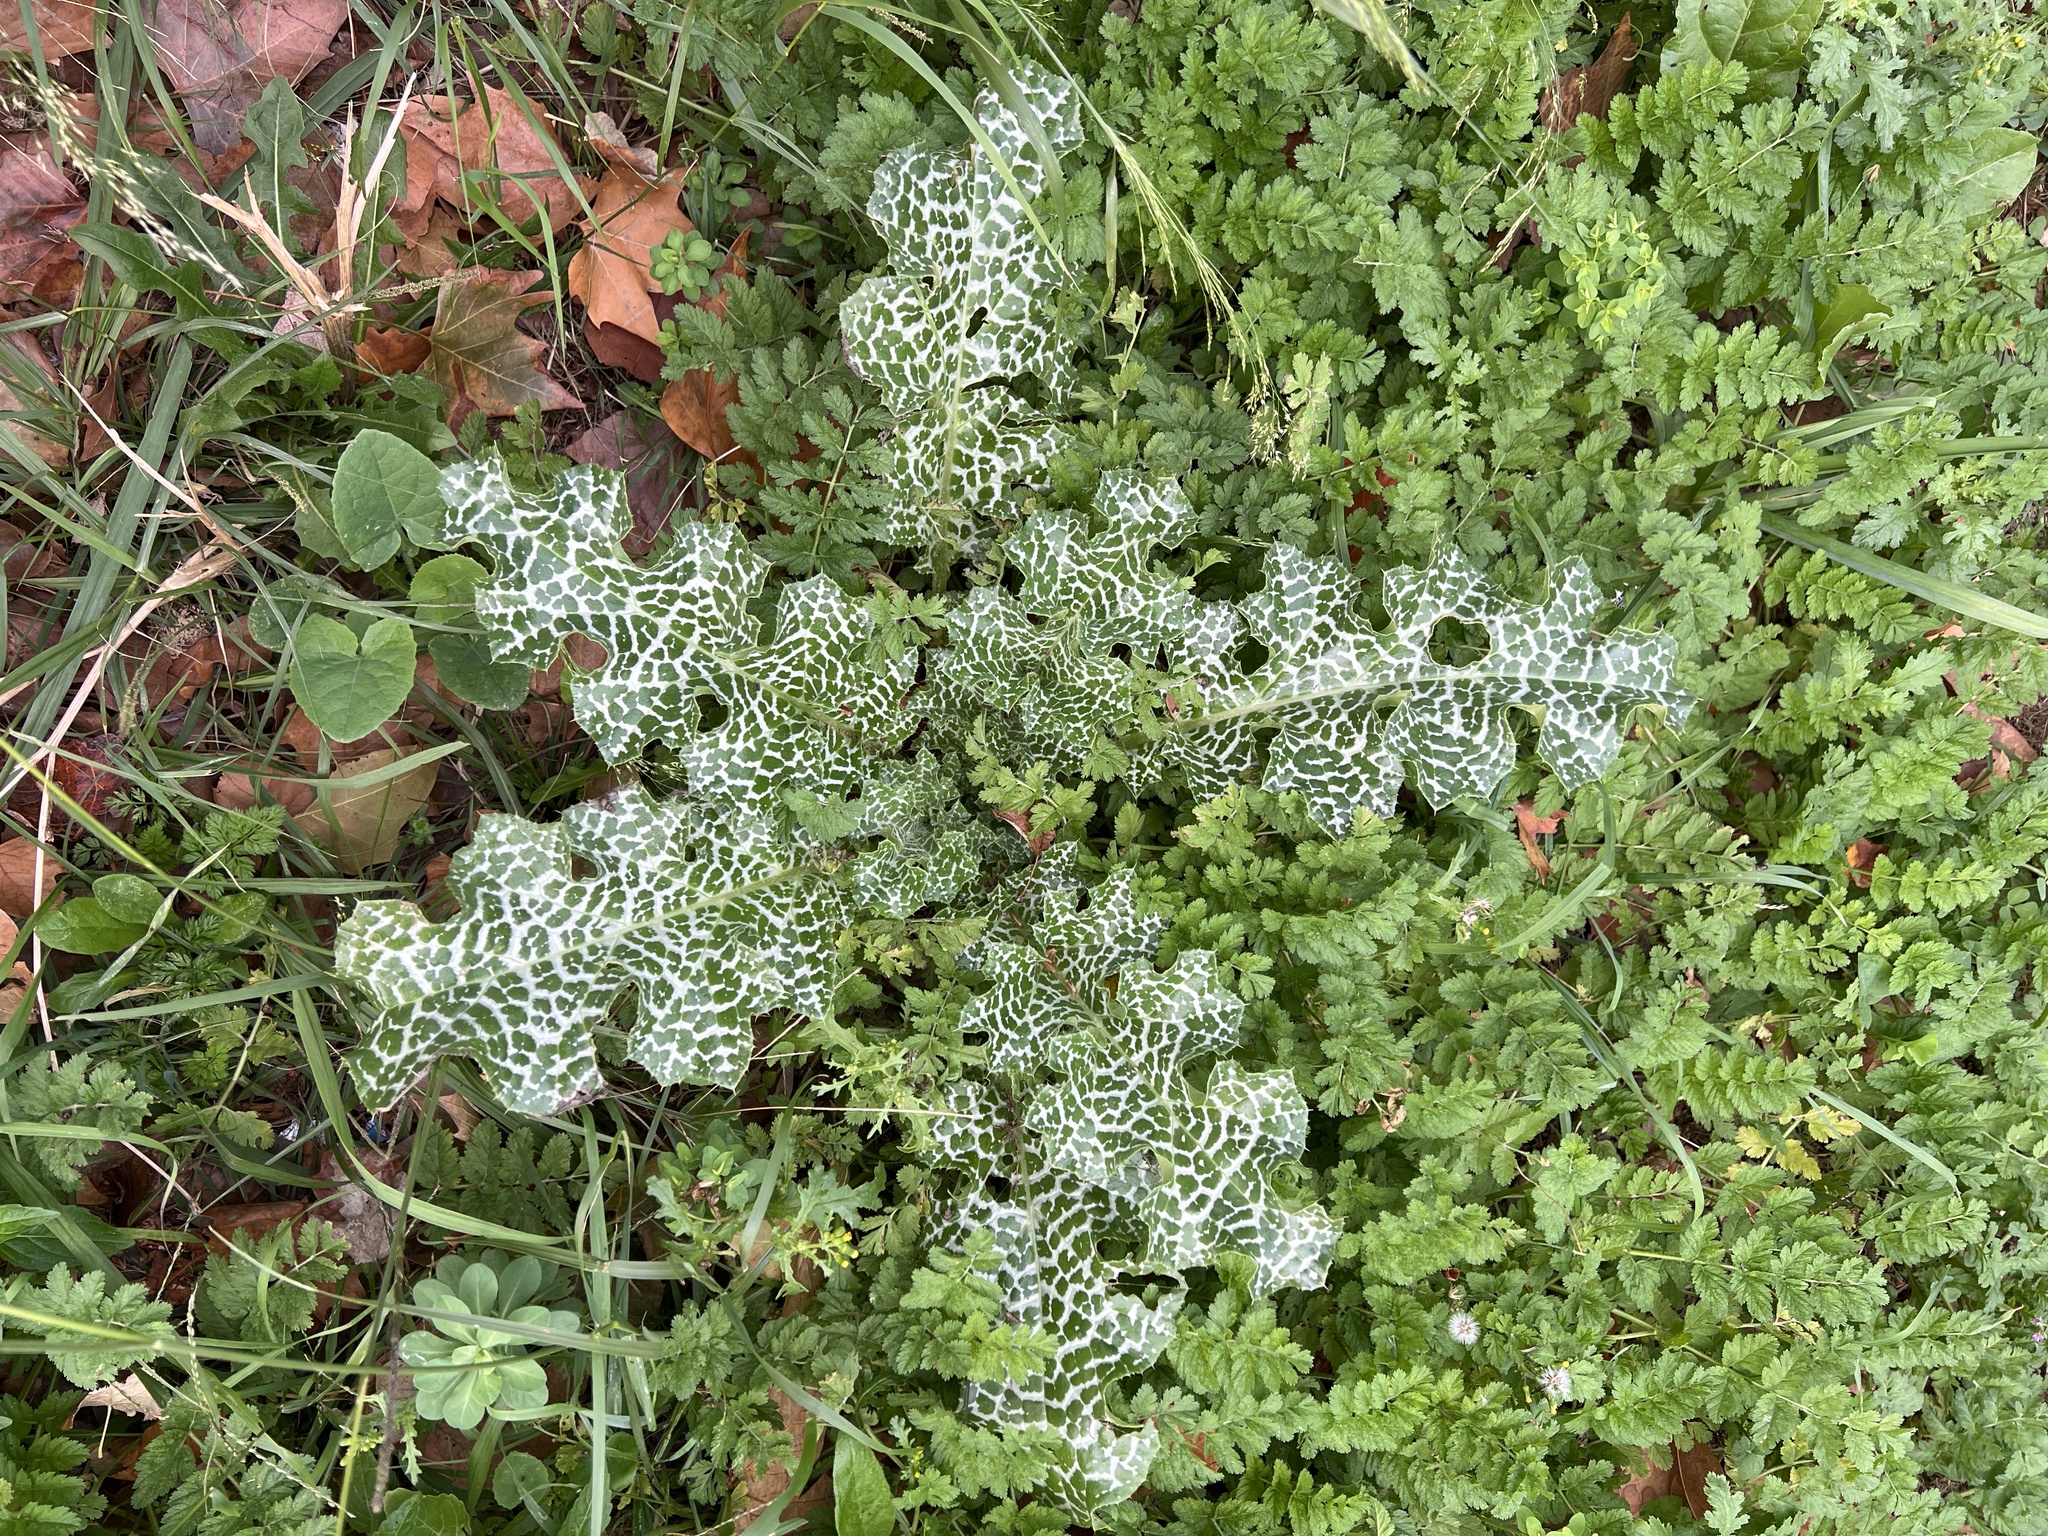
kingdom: Plantae
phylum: Tracheophyta
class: Magnoliopsida
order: Asterales
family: Asteraceae
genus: Silybum
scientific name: Silybum marianum
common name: Milk thistle
